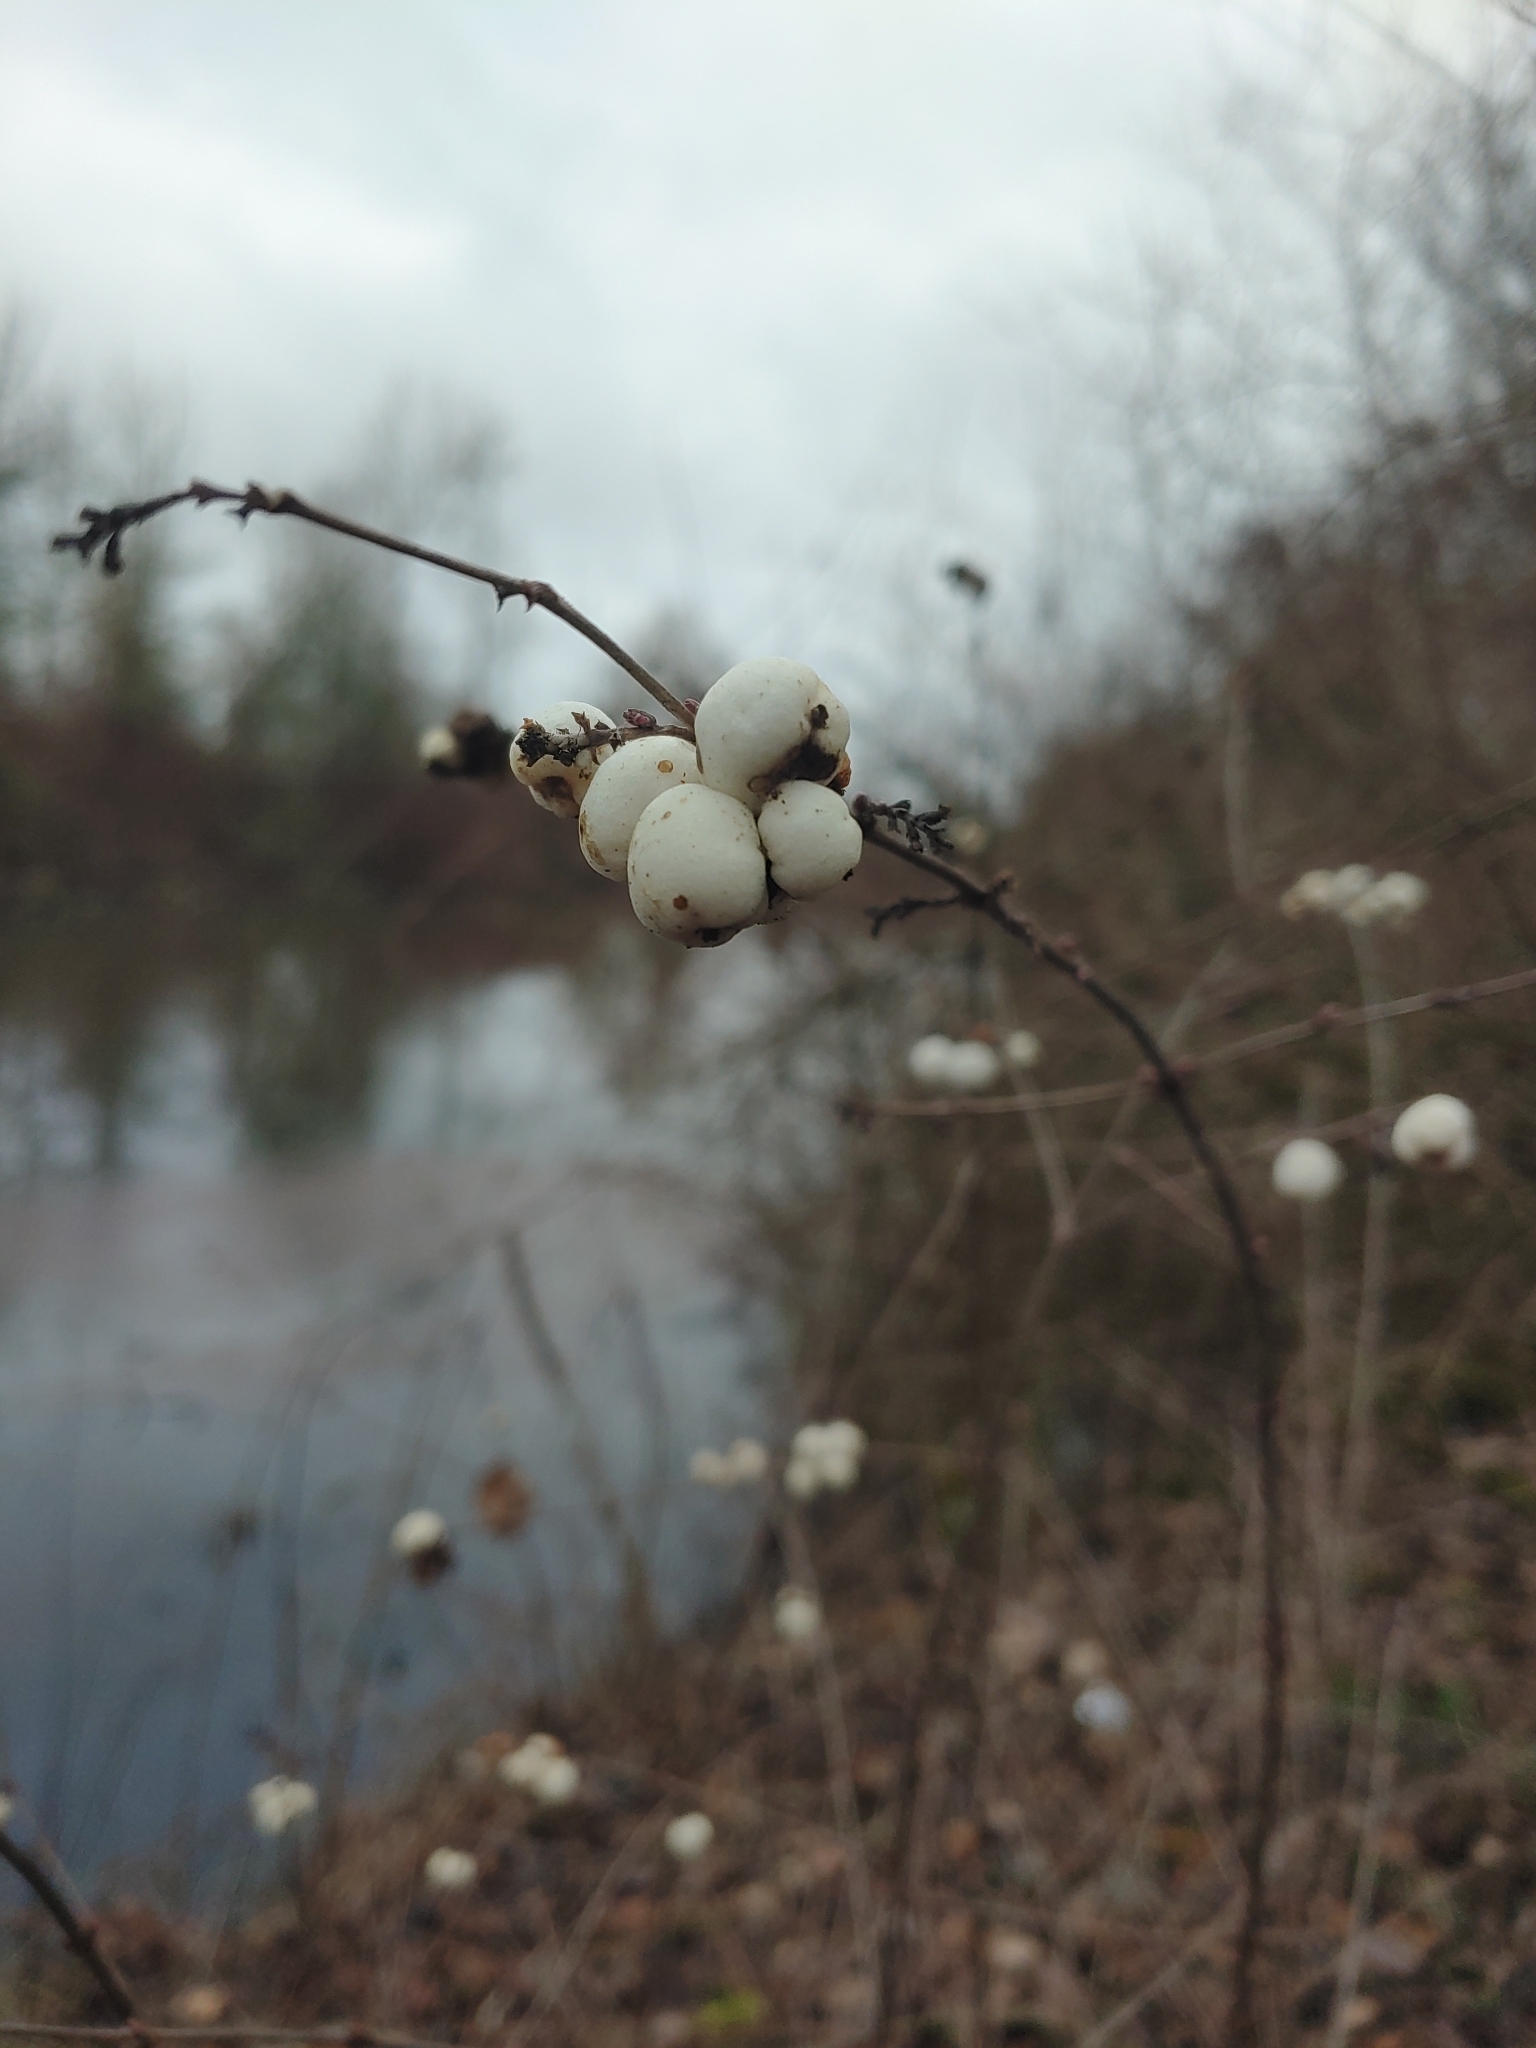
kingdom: Plantae
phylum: Tracheophyta
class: Magnoliopsida
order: Dipsacales
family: Caprifoliaceae
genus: Symphoricarpos
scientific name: Symphoricarpos albus
